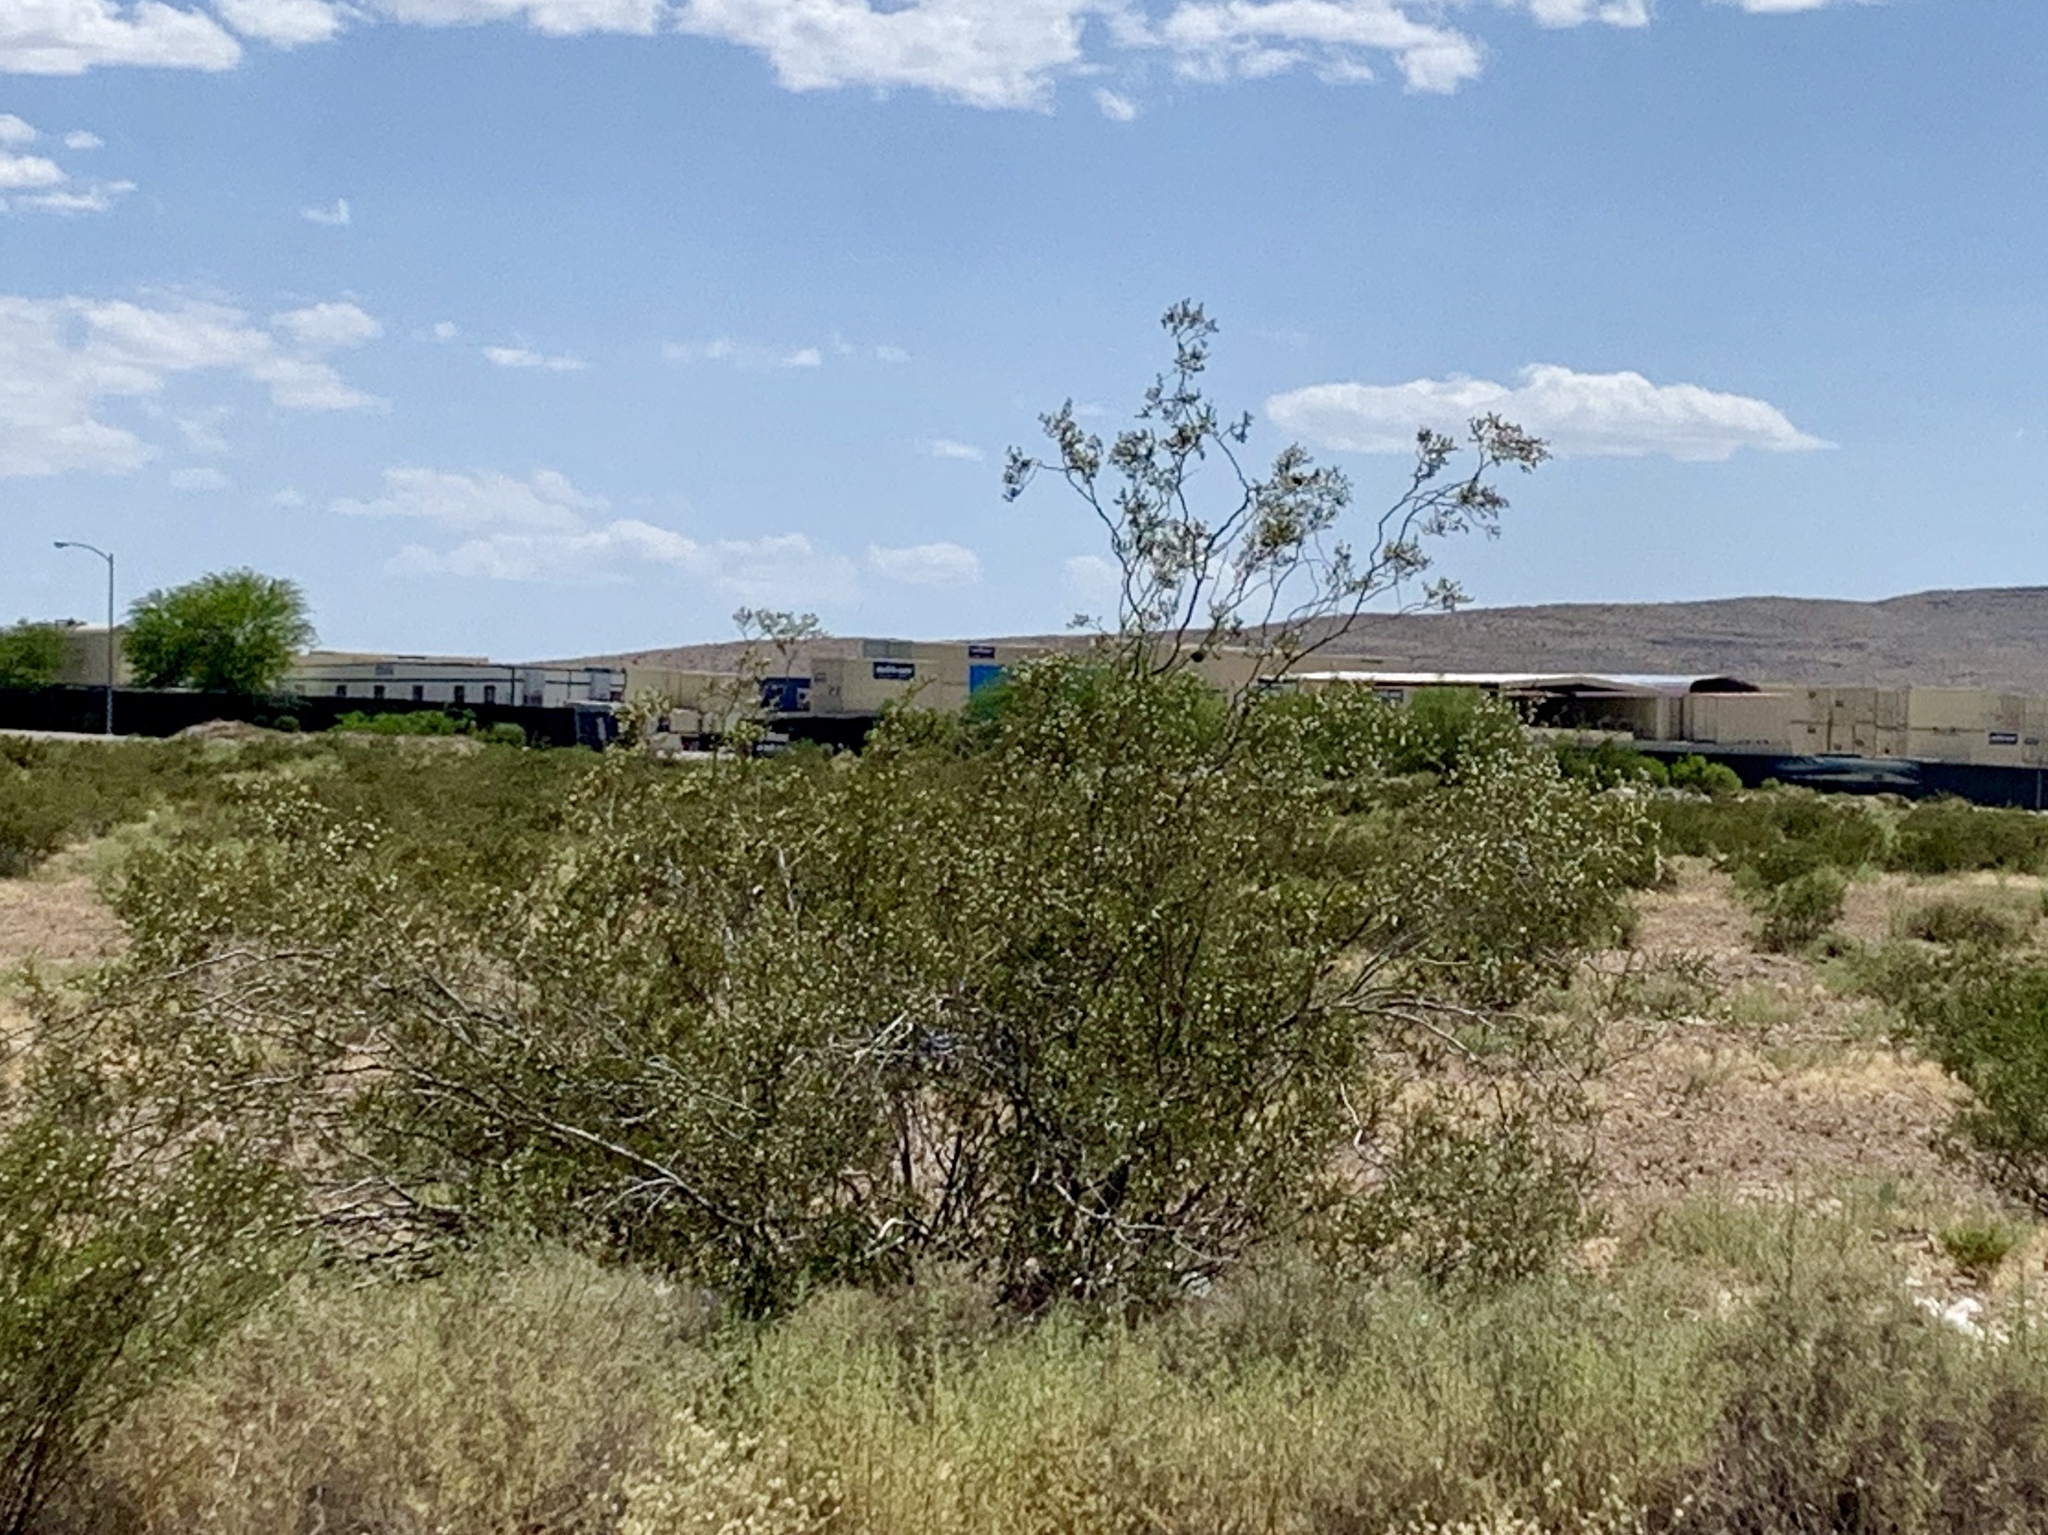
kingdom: Plantae
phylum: Tracheophyta
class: Magnoliopsida
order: Zygophyllales
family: Zygophyllaceae
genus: Larrea
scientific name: Larrea tridentata
